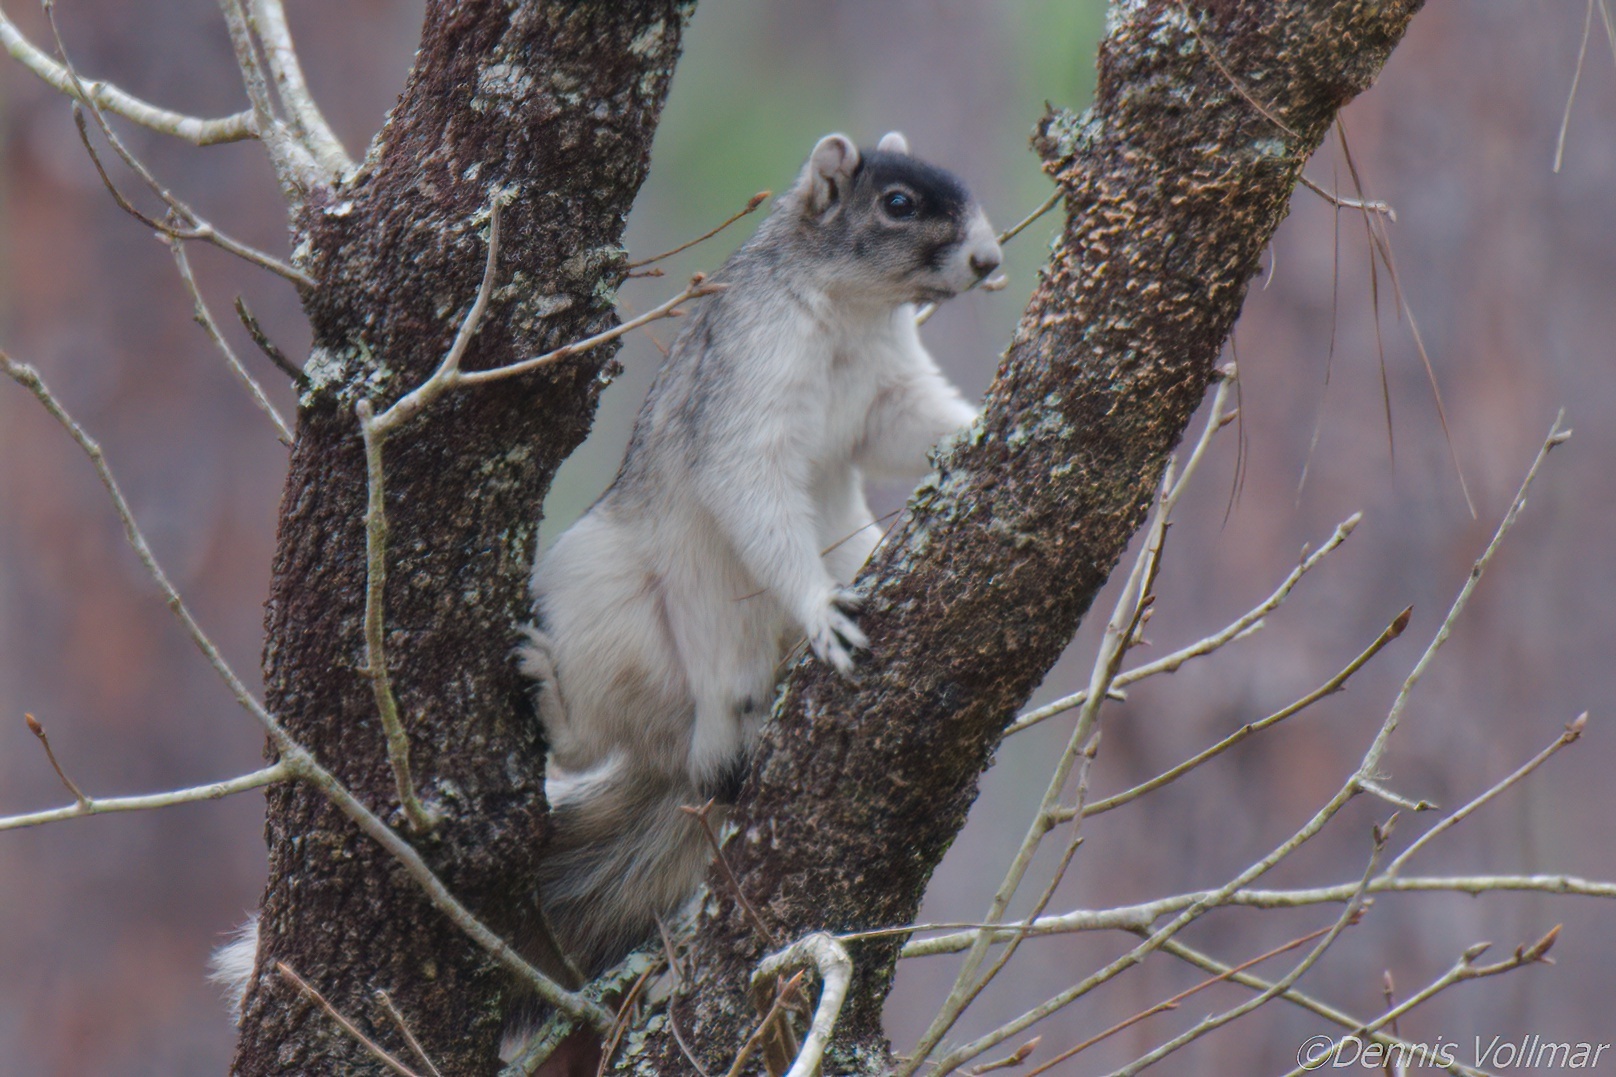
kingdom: Animalia
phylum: Chordata
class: Mammalia
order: Rodentia
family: Sciuridae
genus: Sciurus
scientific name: Sciurus niger
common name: Fox squirrel
